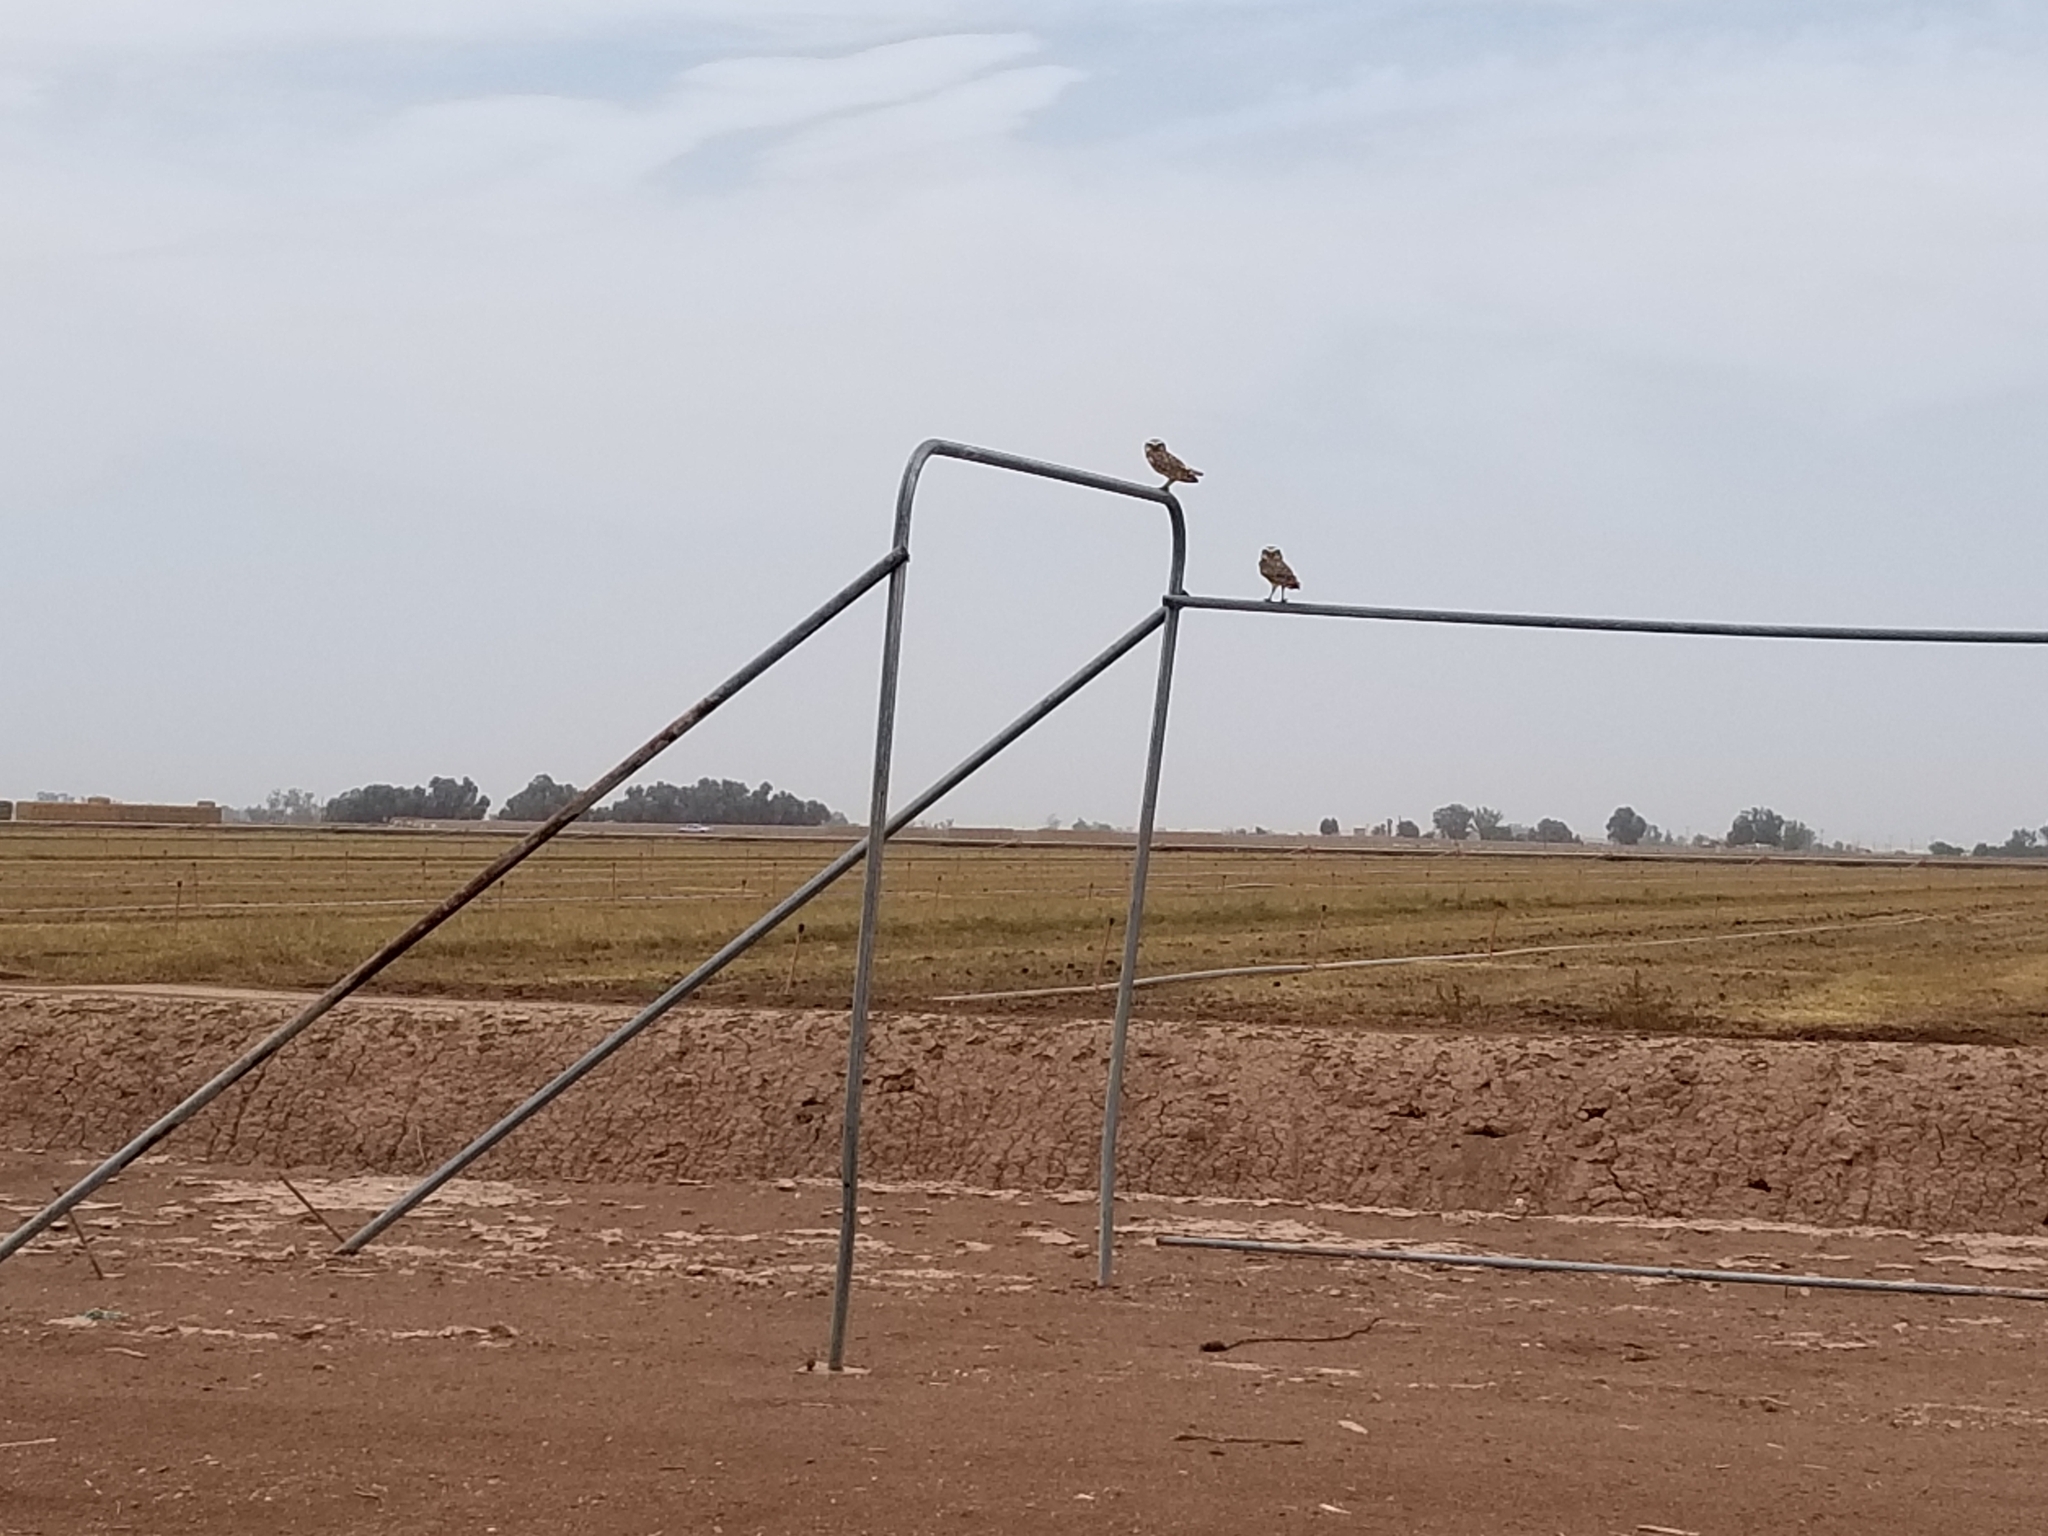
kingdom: Animalia
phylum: Chordata
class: Aves
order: Strigiformes
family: Strigidae
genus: Athene
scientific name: Athene cunicularia
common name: Burrowing owl
